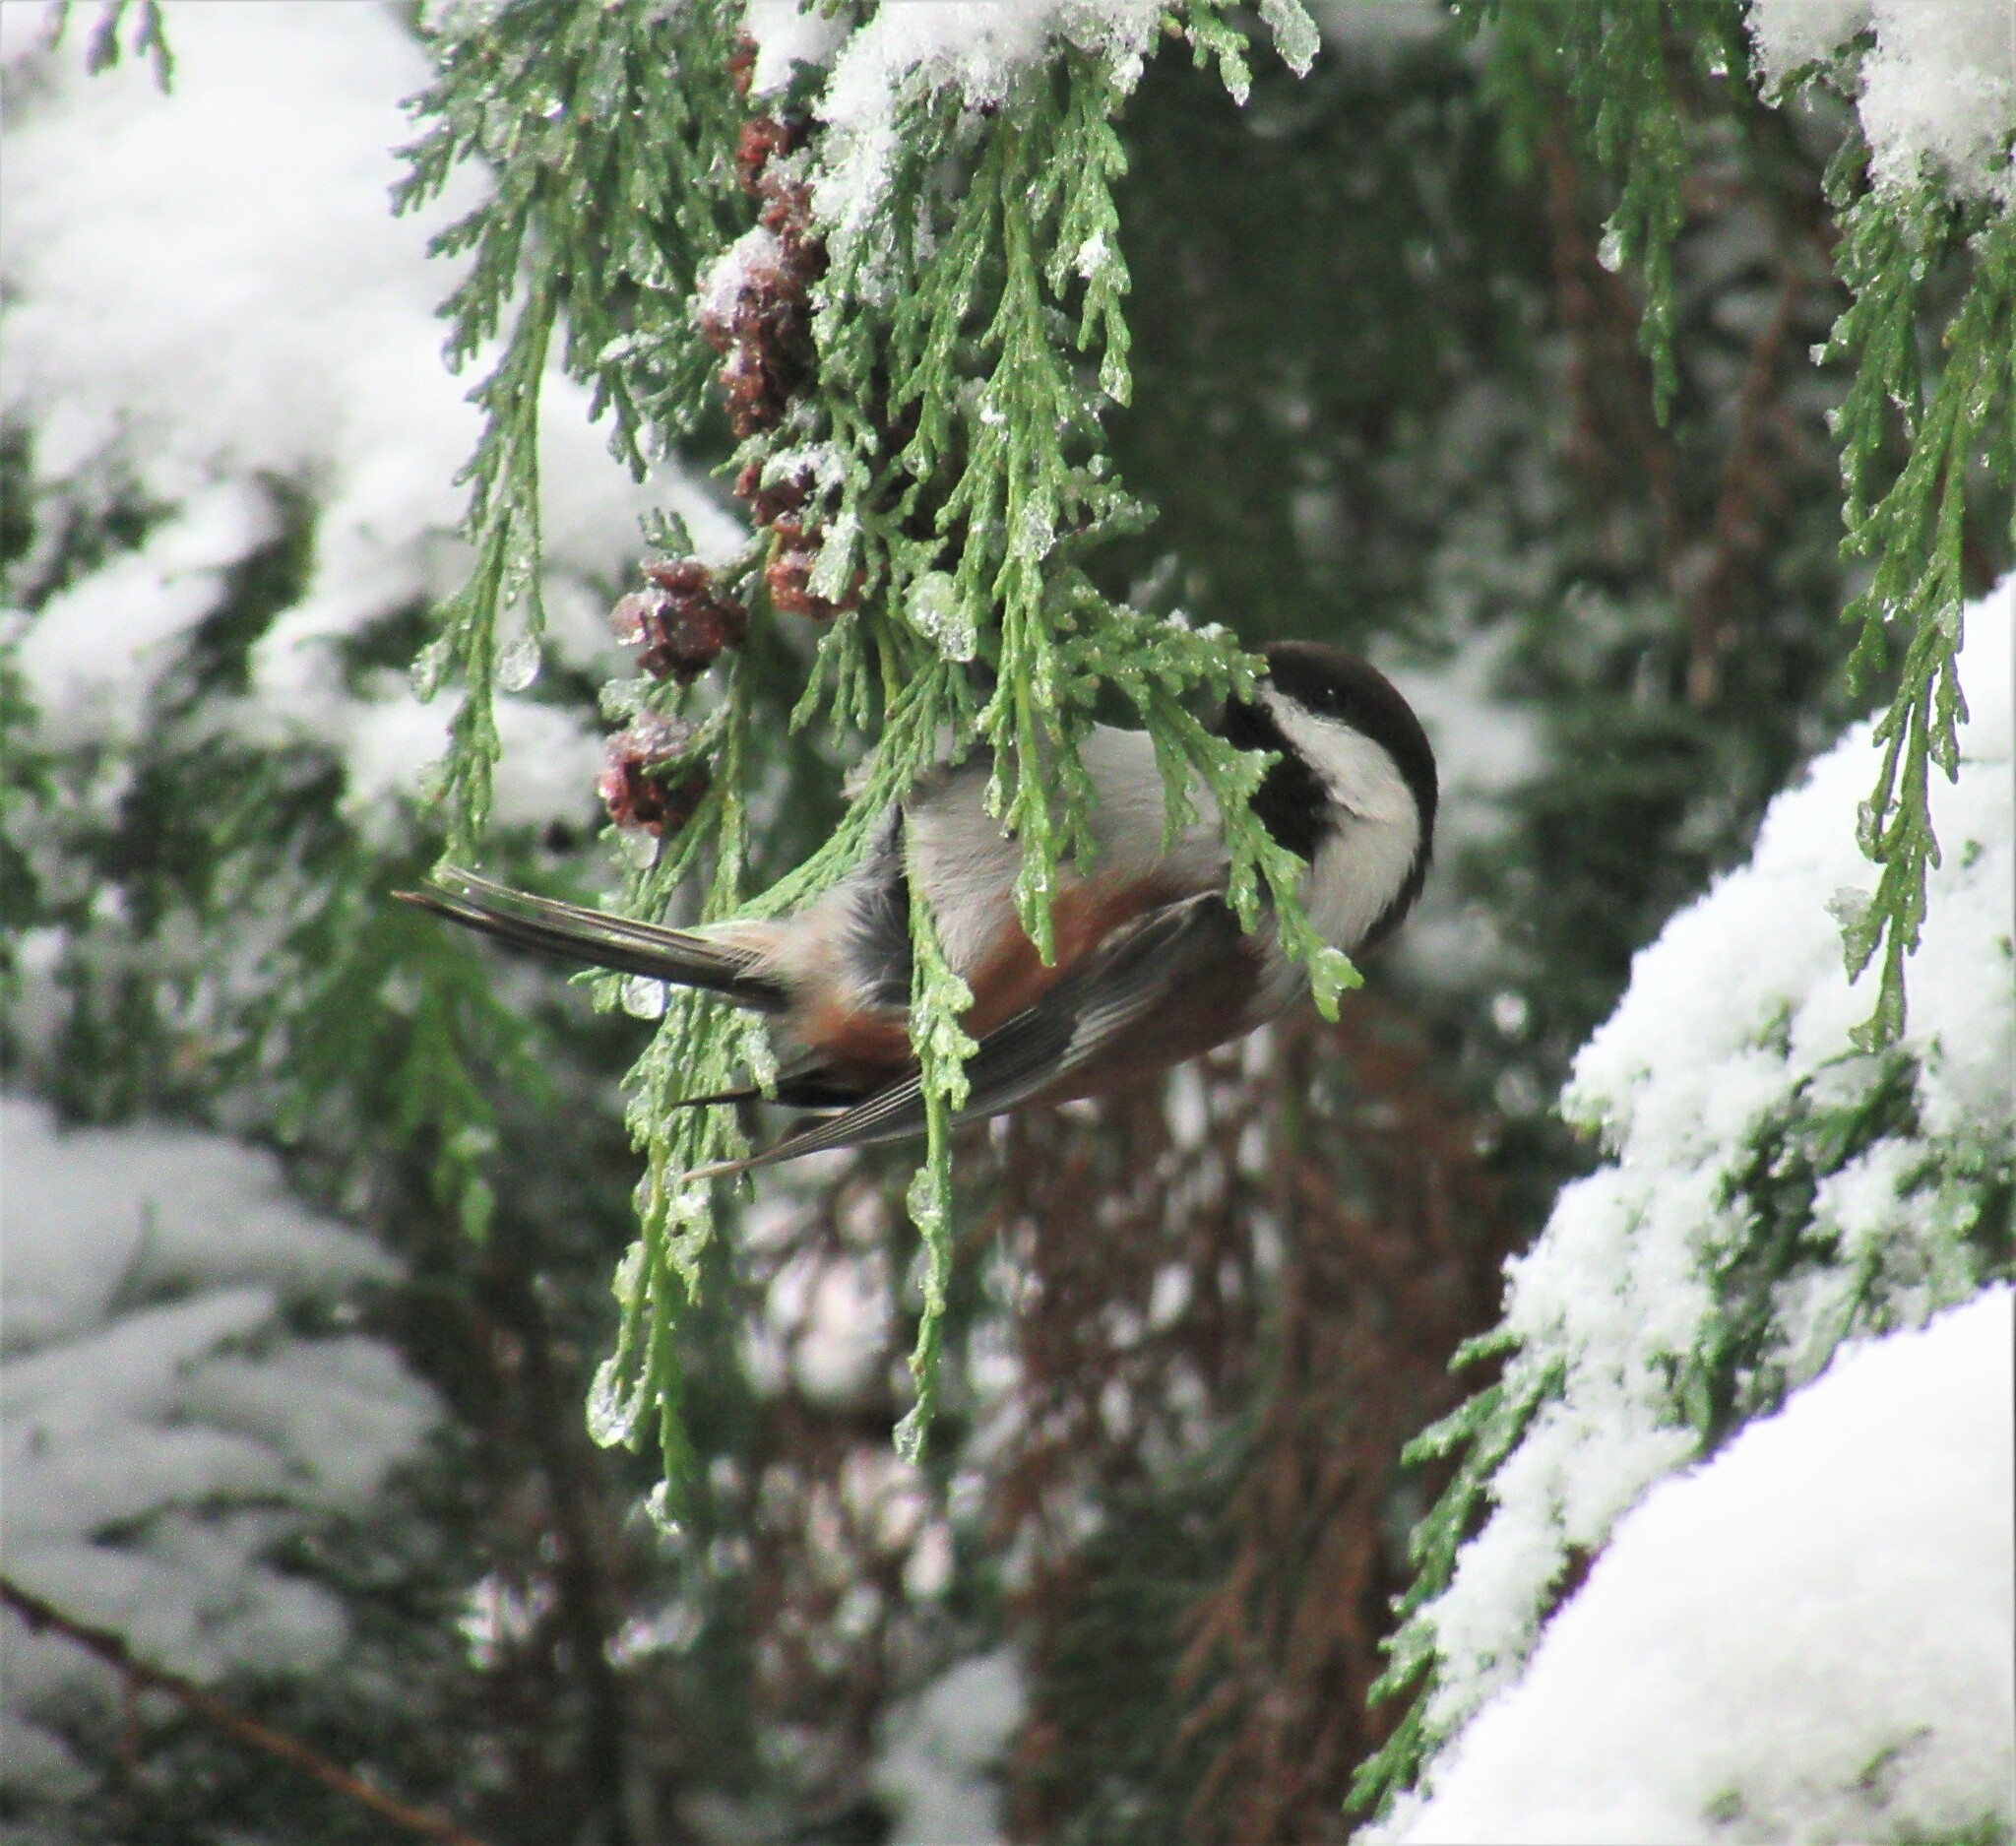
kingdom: Animalia
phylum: Chordata
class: Aves
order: Passeriformes
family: Paridae
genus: Poecile
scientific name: Poecile rufescens
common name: Chestnut-backed chickadee
